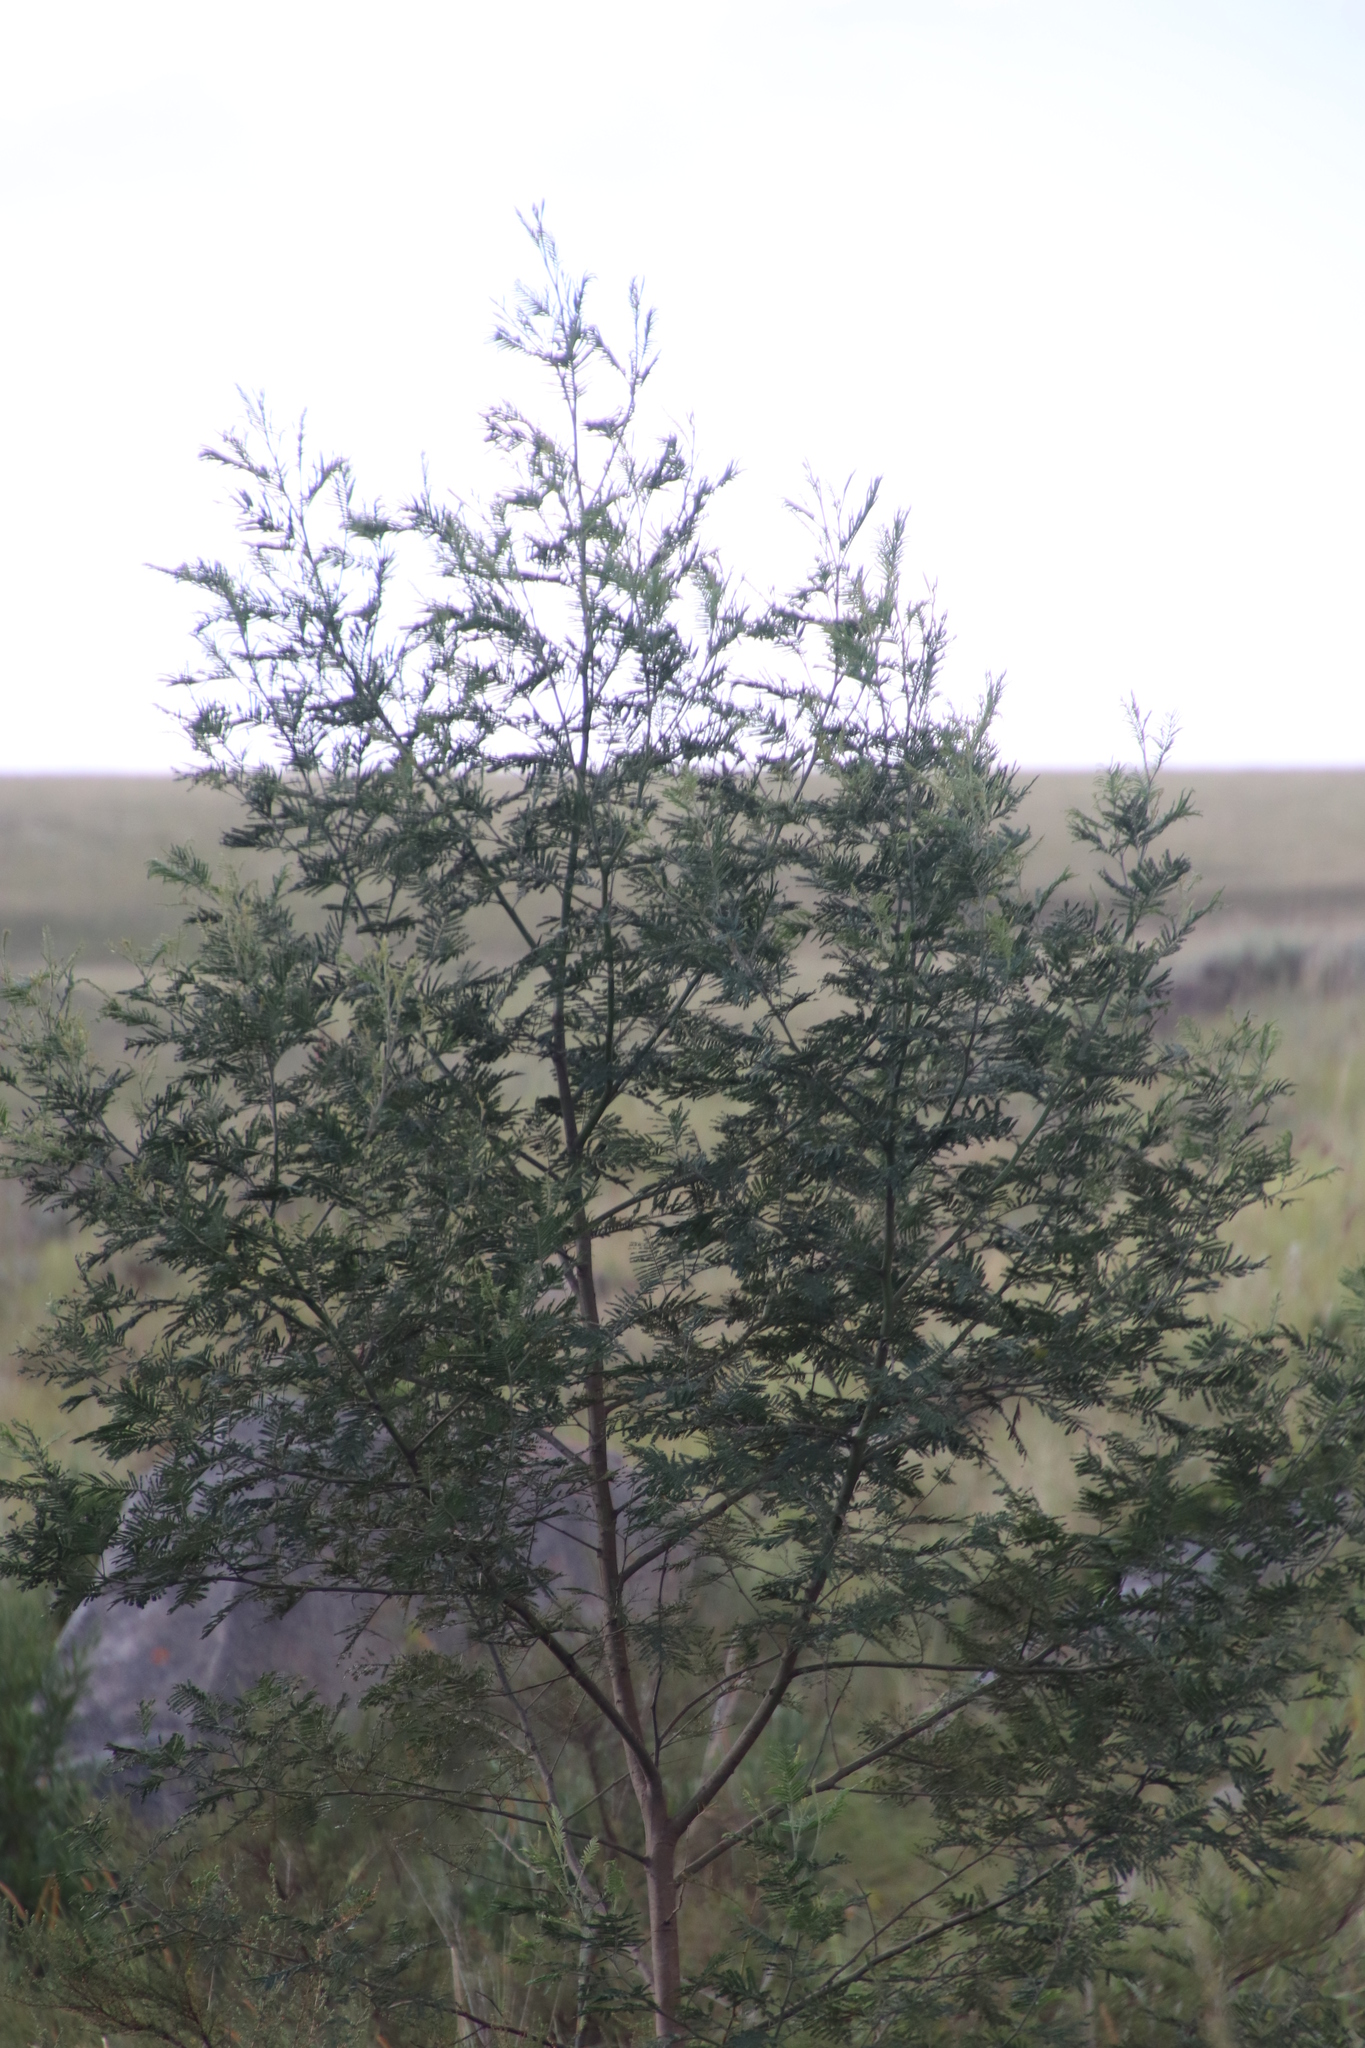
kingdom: Plantae
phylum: Tracheophyta
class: Magnoliopsida
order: Fabales
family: Fabaceae
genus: Acacia
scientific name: Acacia dealbata
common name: Silver wattle
